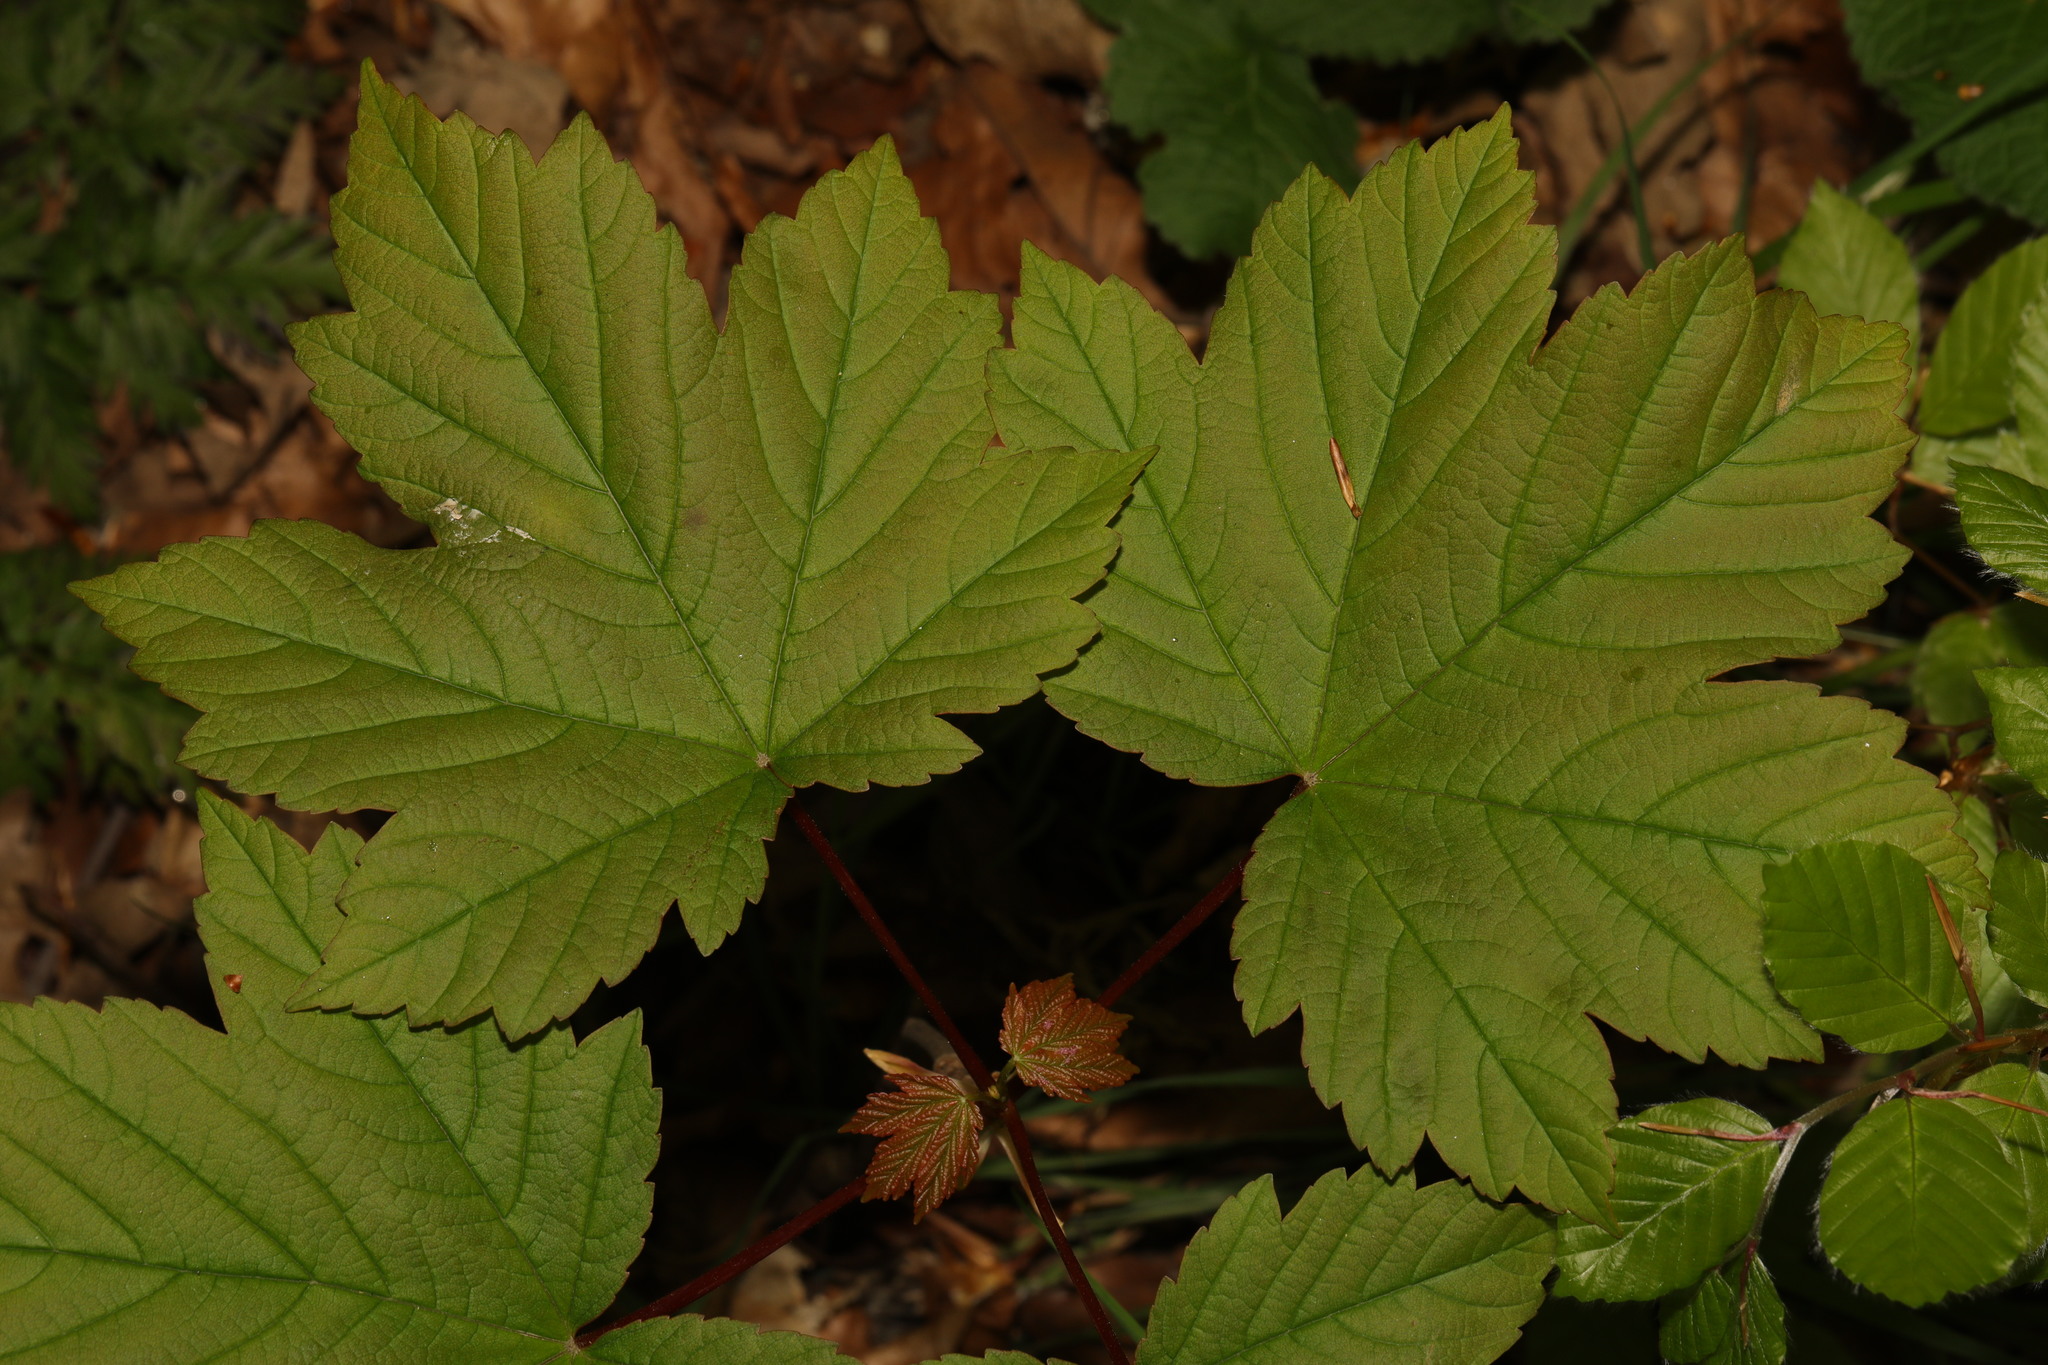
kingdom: Plantae
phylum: Tracheophyta
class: Magnoliopsida
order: Sapindales
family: Sapindaceae
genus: Acer
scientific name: Acer pseudoplatanus
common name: Sycamore
